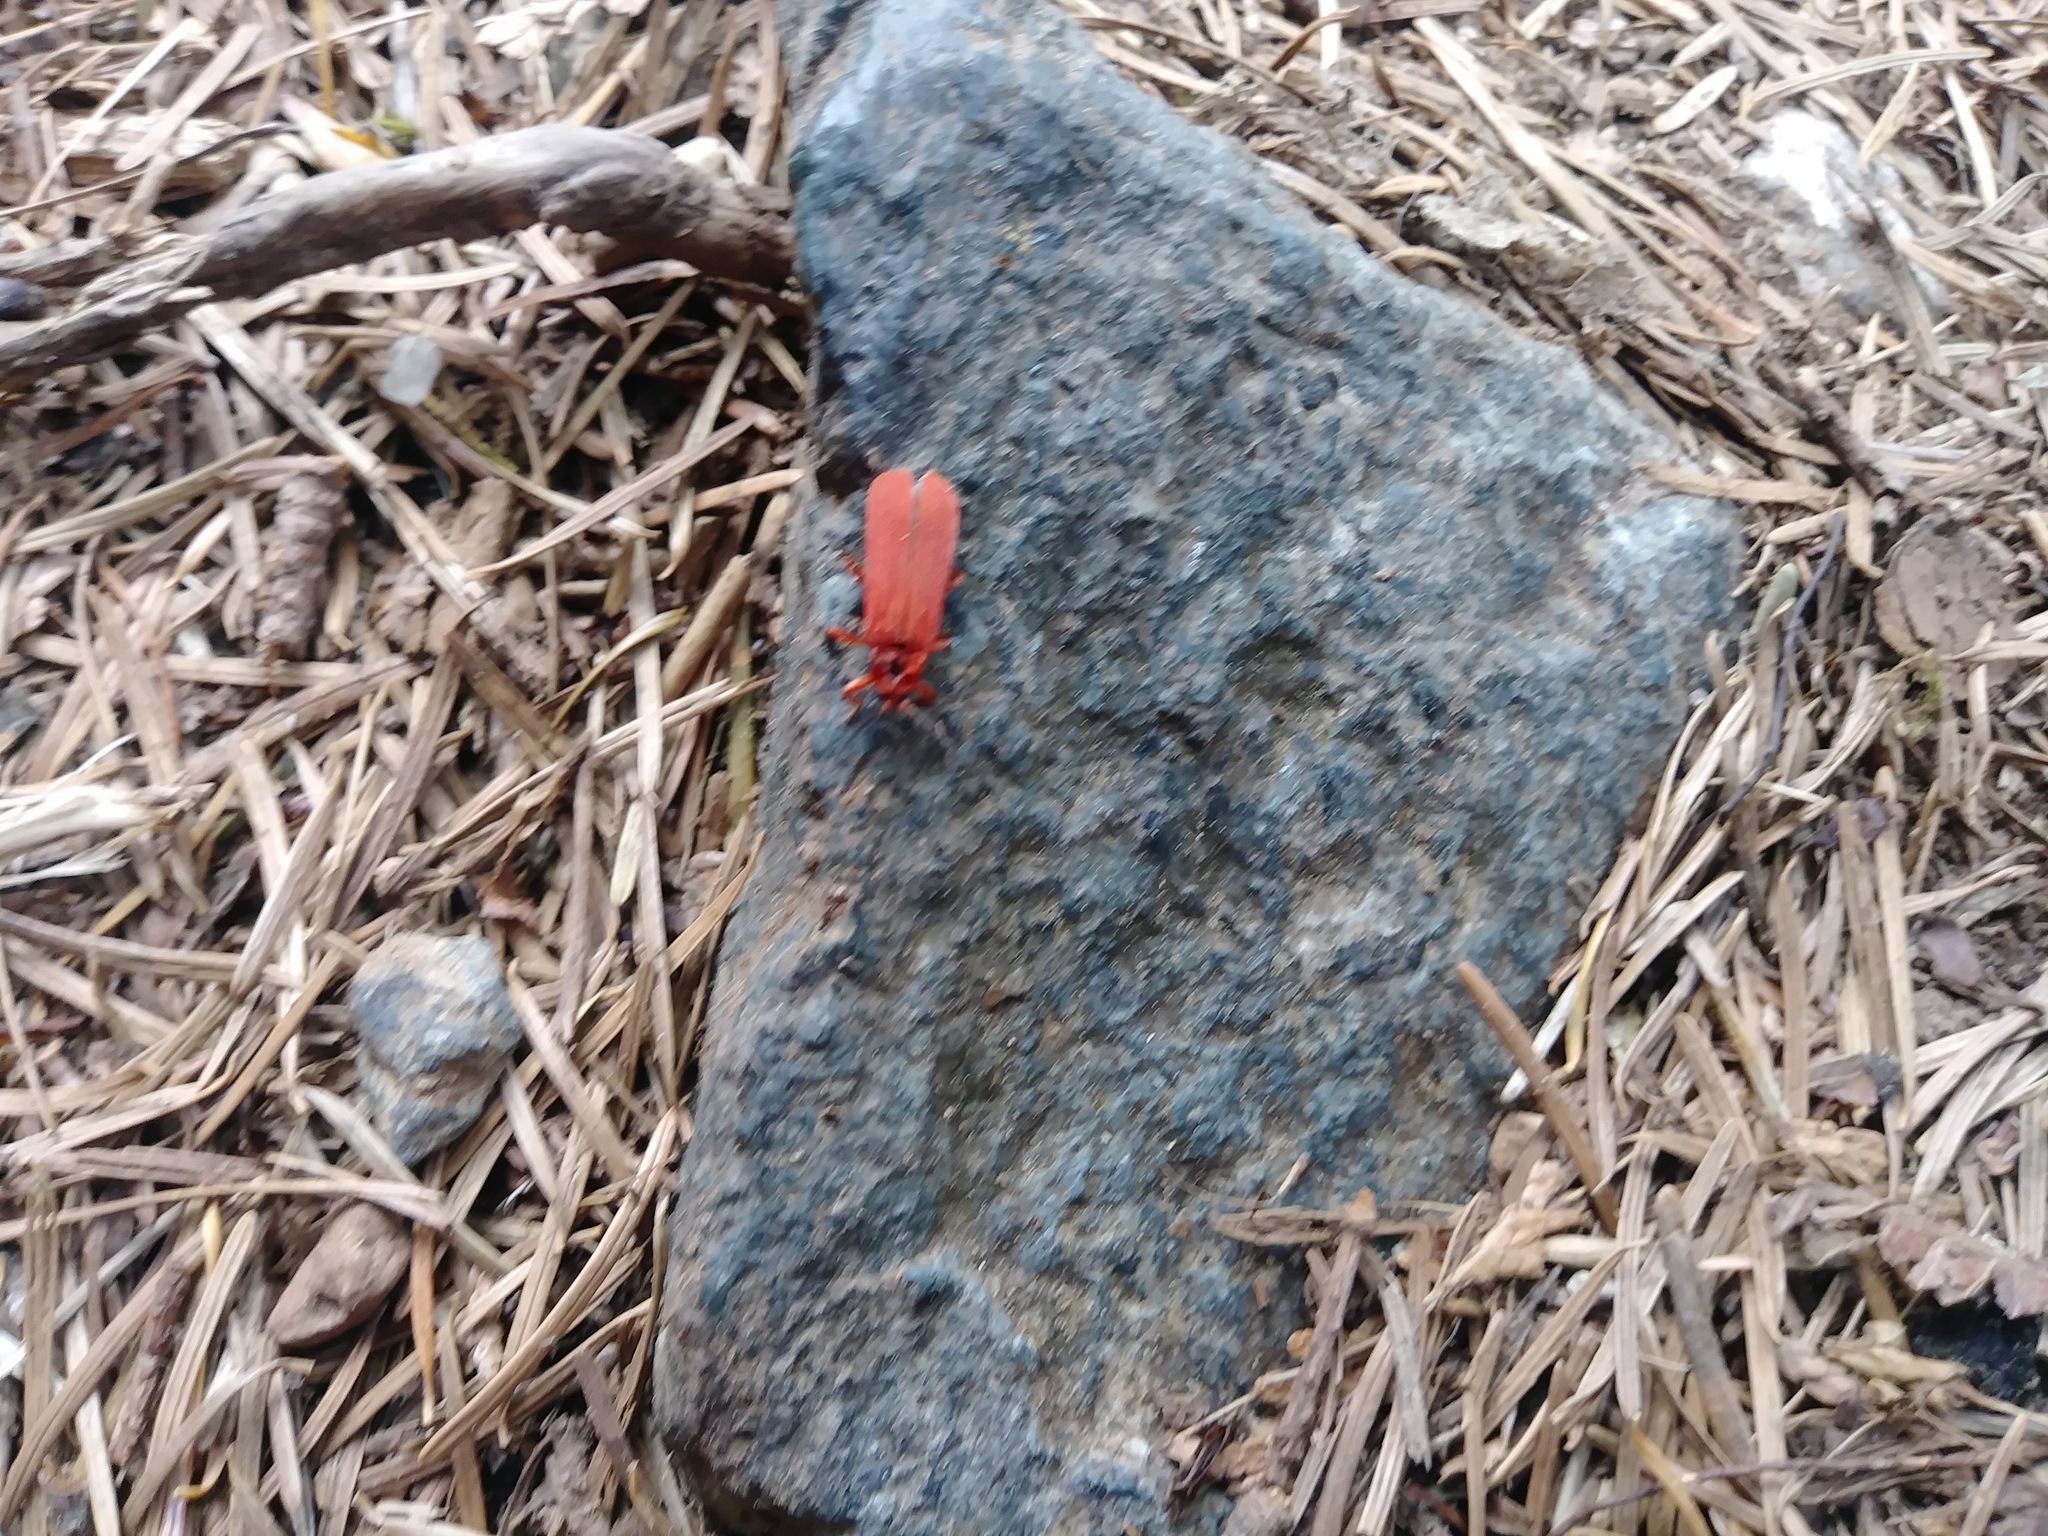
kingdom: Animalia
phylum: Arthropoda
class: Insecta
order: Coleoptera
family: Lycidae
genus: Dictyoptera
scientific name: Dictyoptera simplicipes
